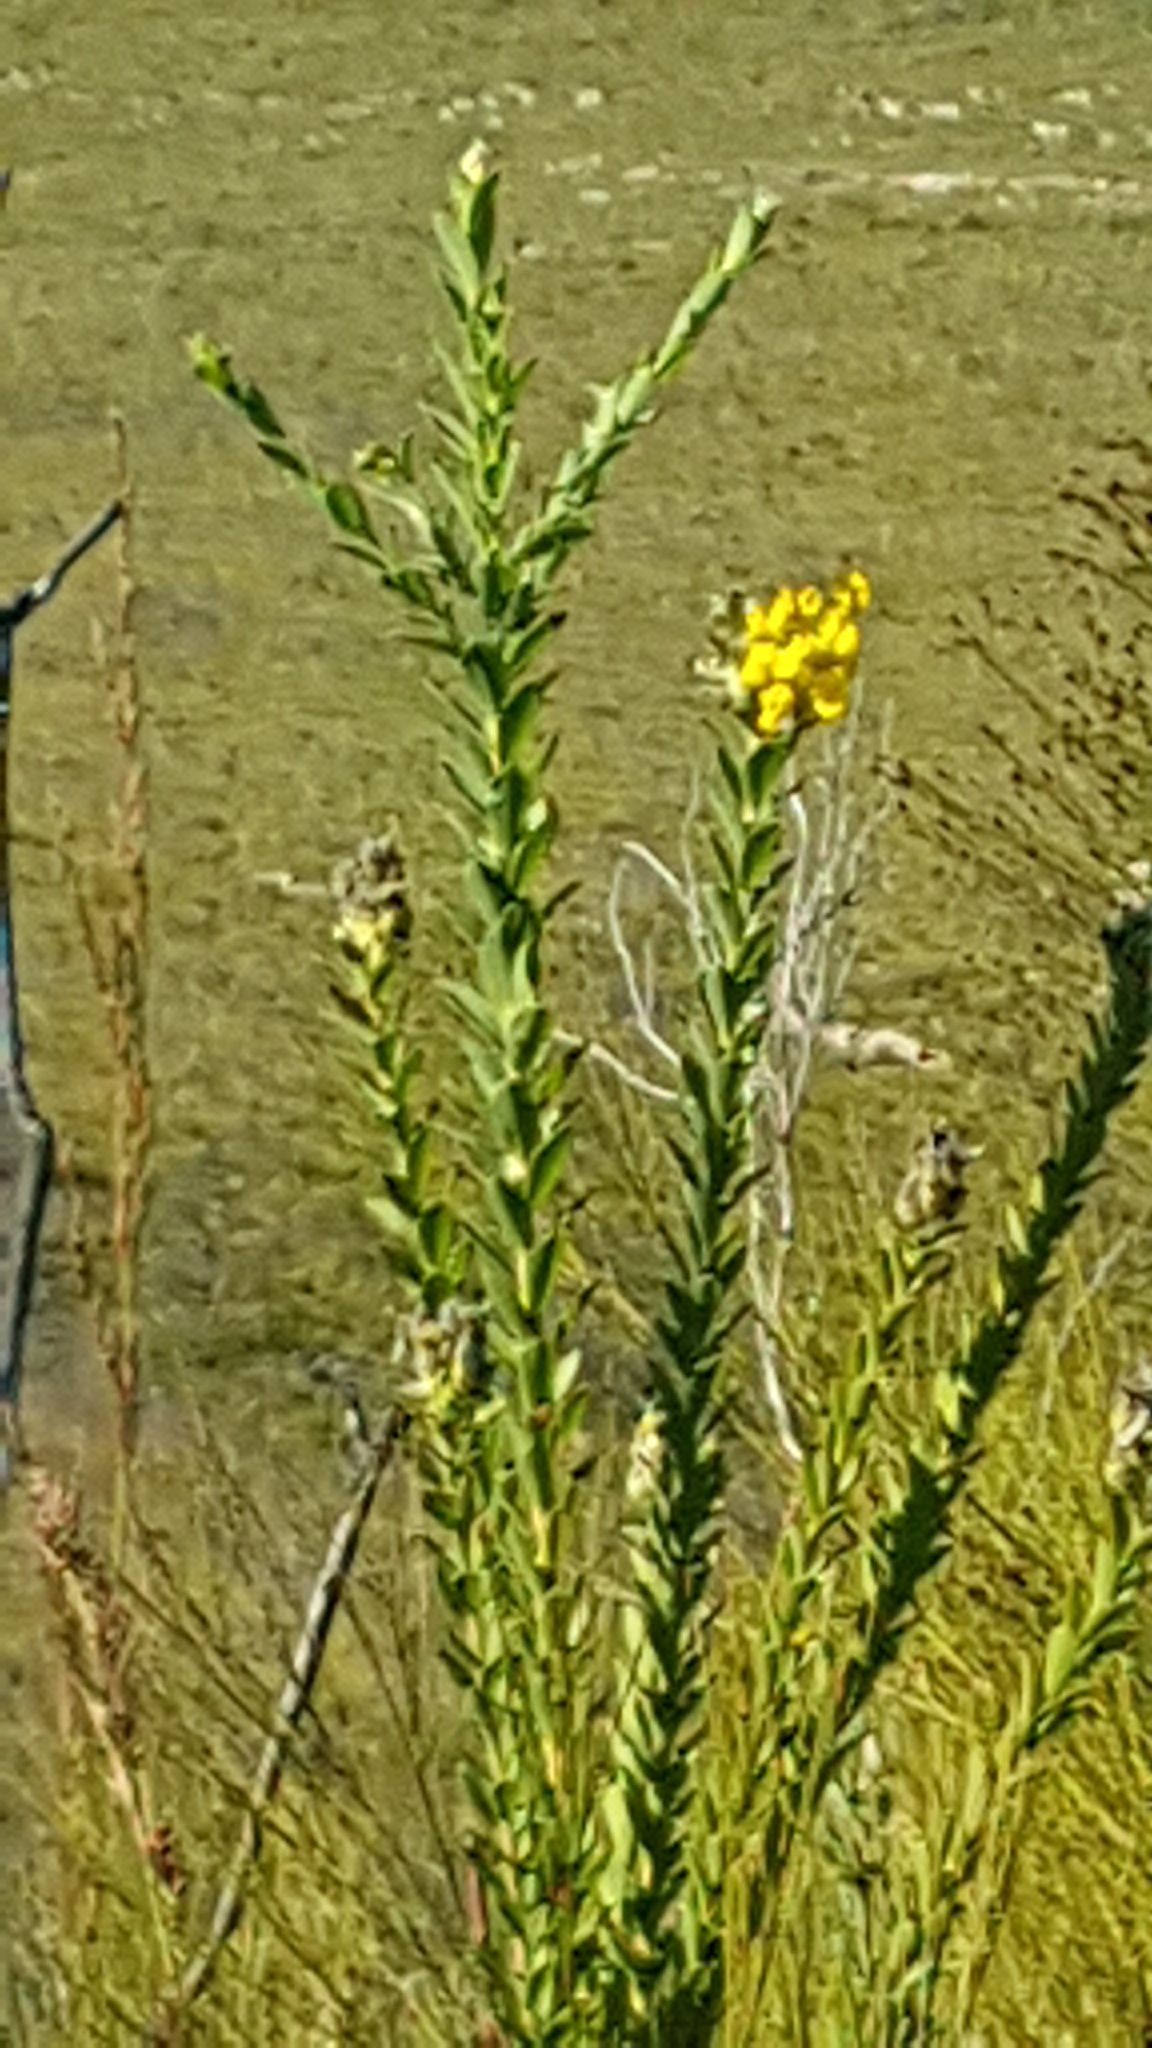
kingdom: Plantae
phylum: Tracheophyta
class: Magnoliopsida
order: Fabales
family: Fabaceae
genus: Liparia
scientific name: Liparia hirsuta
